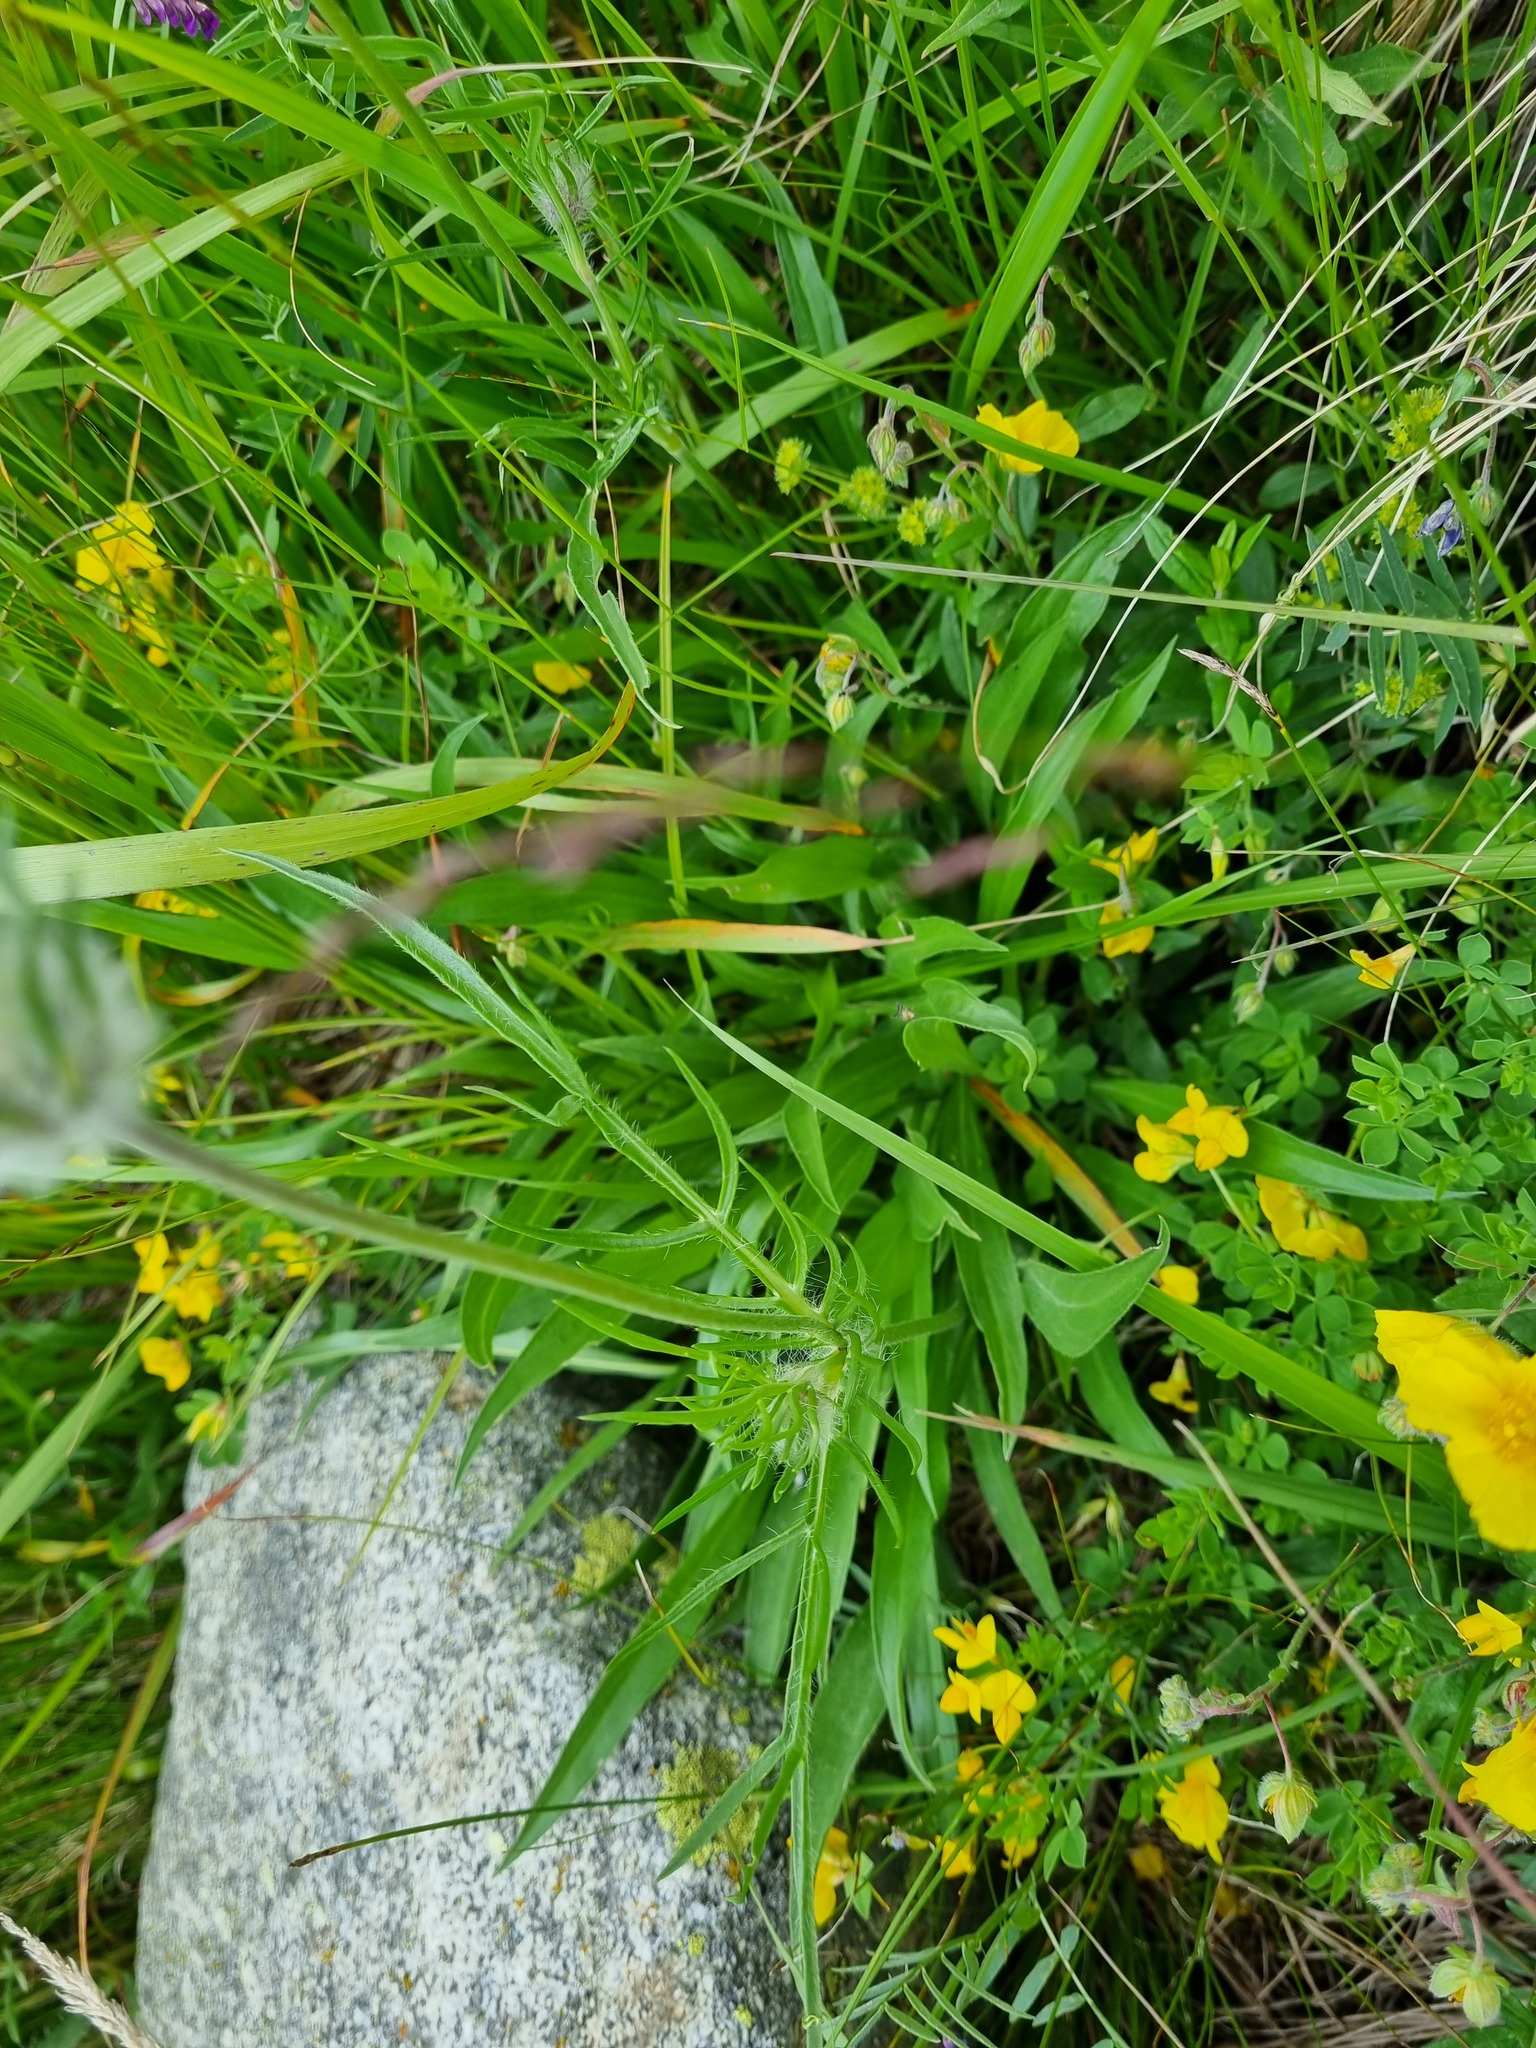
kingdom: Plantae
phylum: Tracheophyta
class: Magnoliopsida
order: Dipsacales
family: Caprifoliaceae
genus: Lomelosia
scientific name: Lomelosia caucasica
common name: Pincushion-flower
